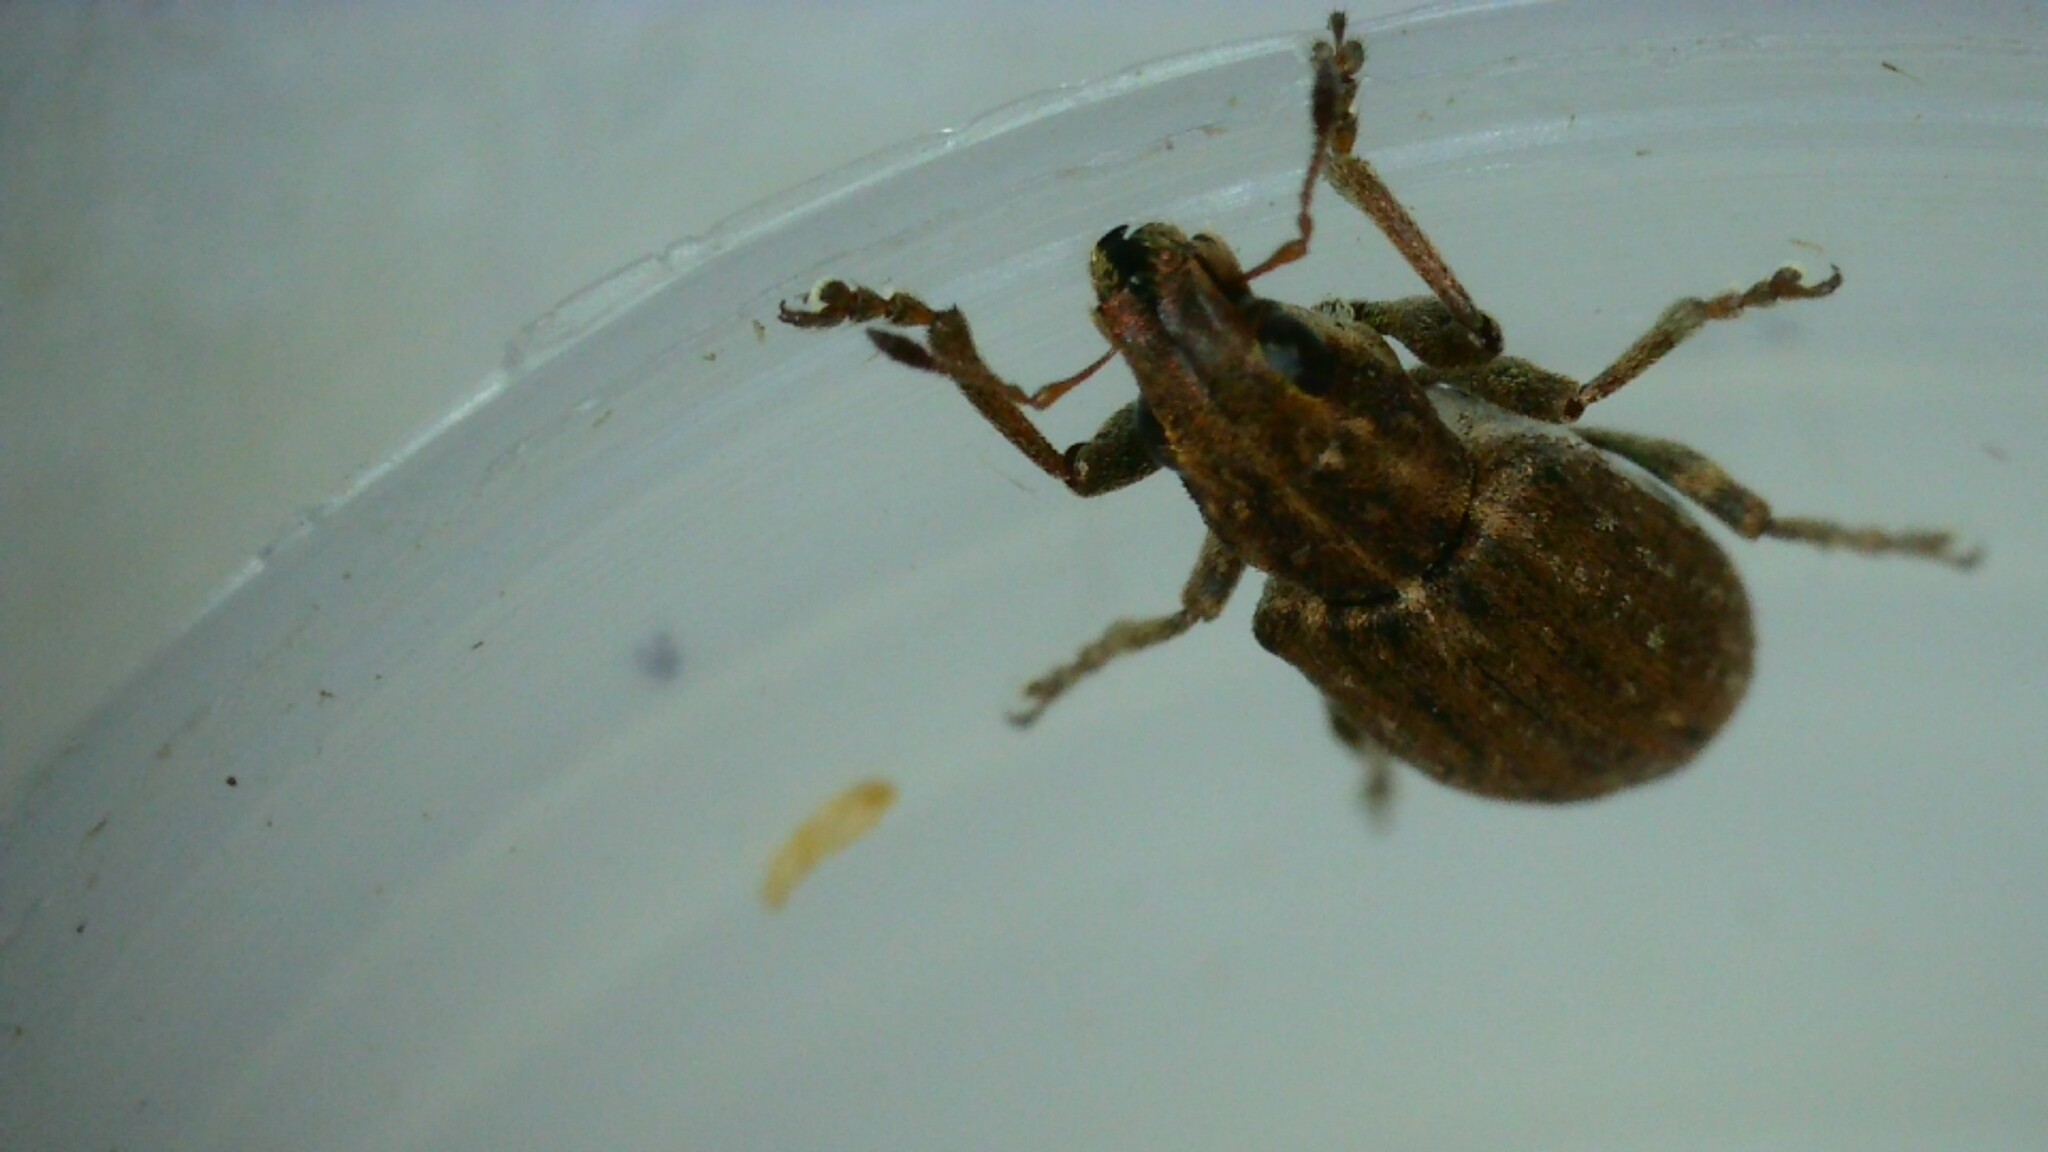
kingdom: Animalia
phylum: Arthropoda
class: Insecta
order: Coleoptera
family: Curculionidae
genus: Sitona
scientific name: Sitona obsoletus
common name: Weevil
